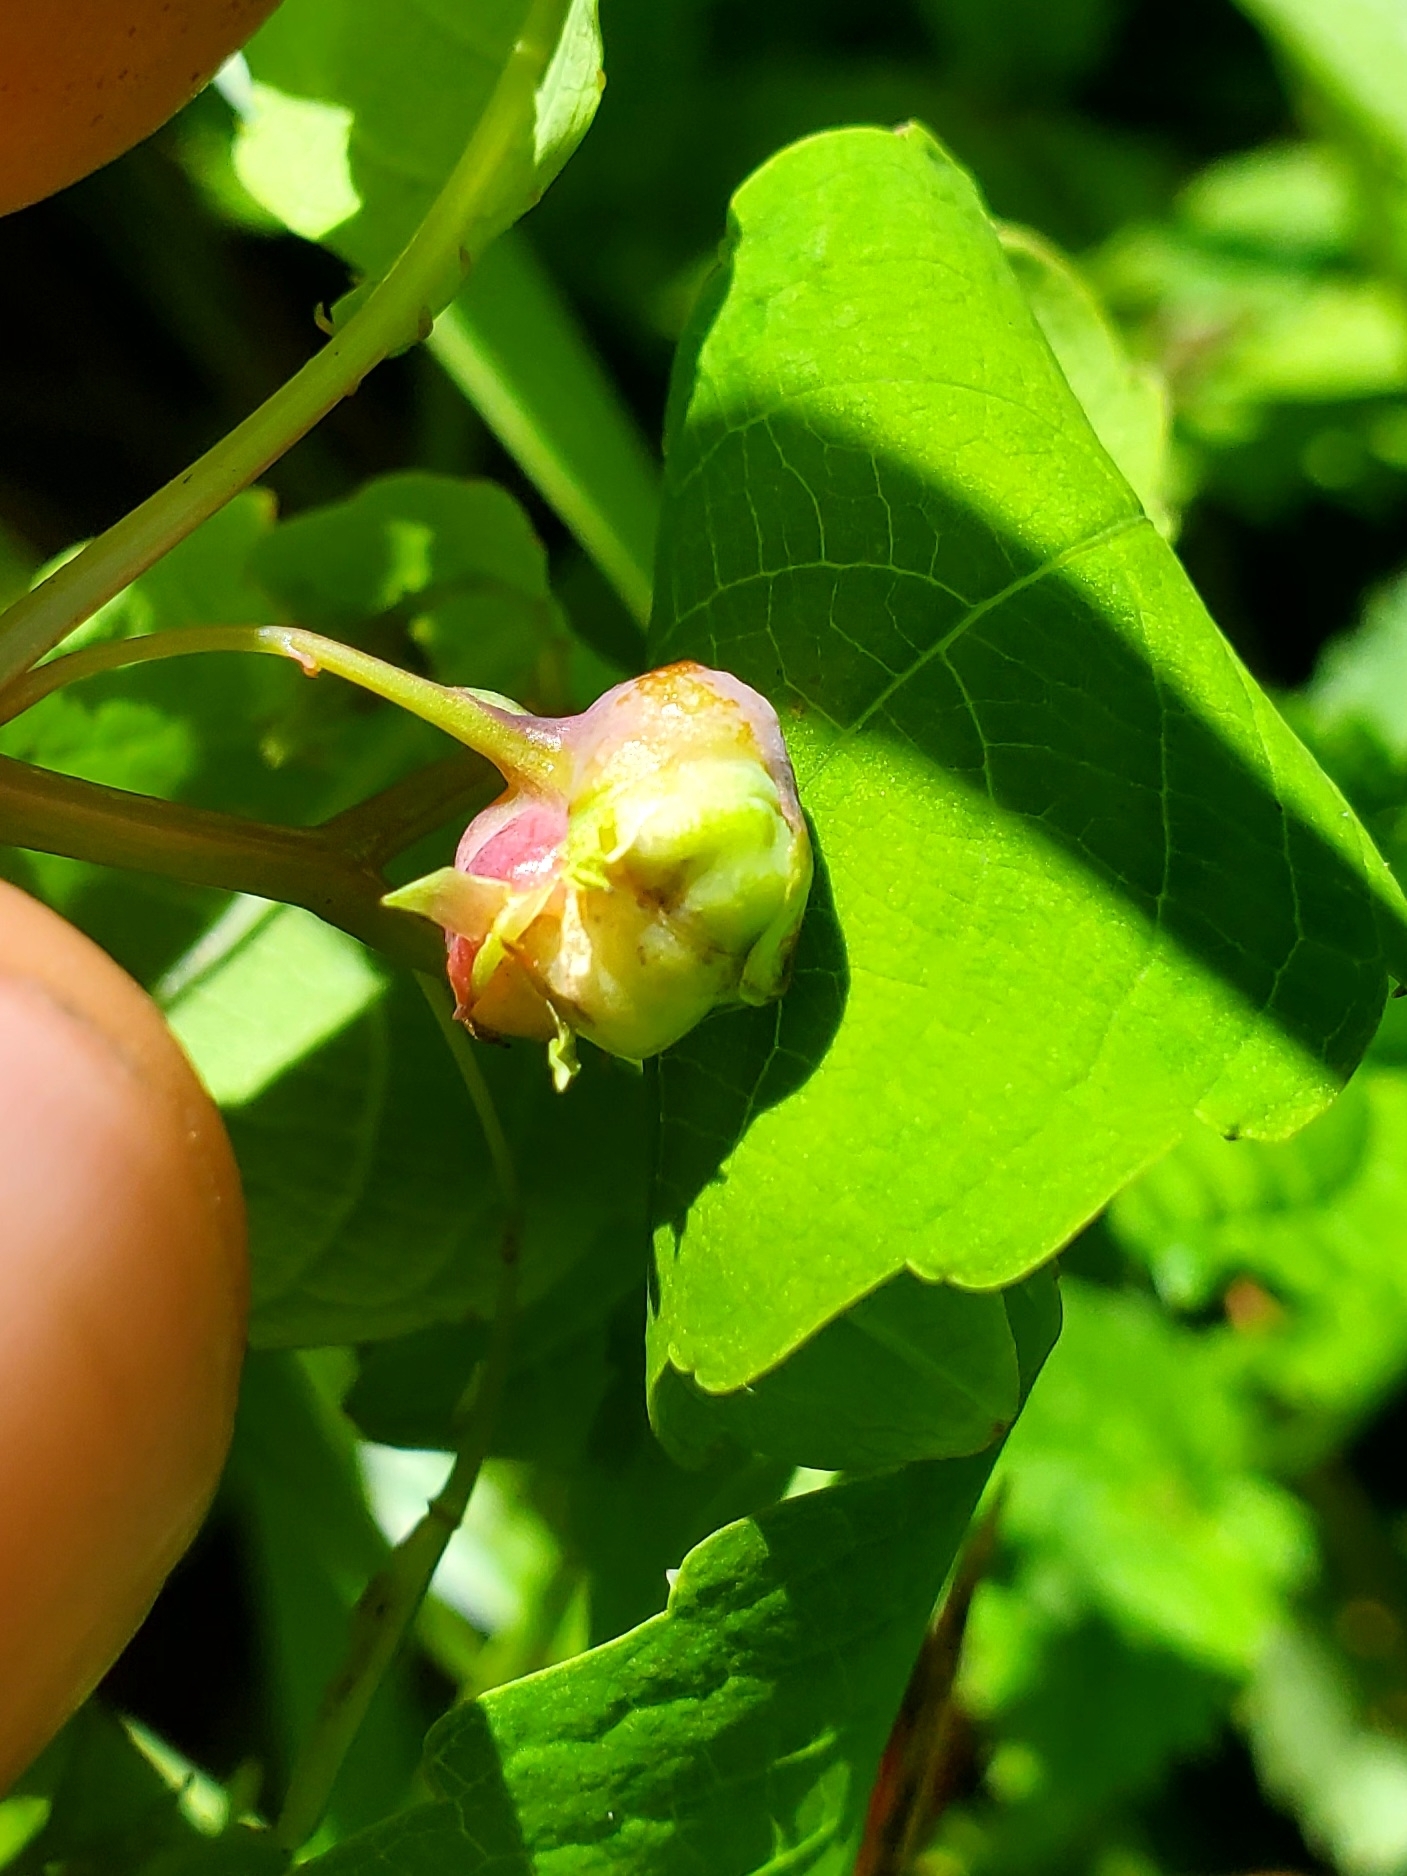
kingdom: Animalia
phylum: Arthropoda
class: Insecta
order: Diptera
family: Cecidomyiidae
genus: Schizomyia
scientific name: Schizomyia impatientis
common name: Jewelweed gall midge
